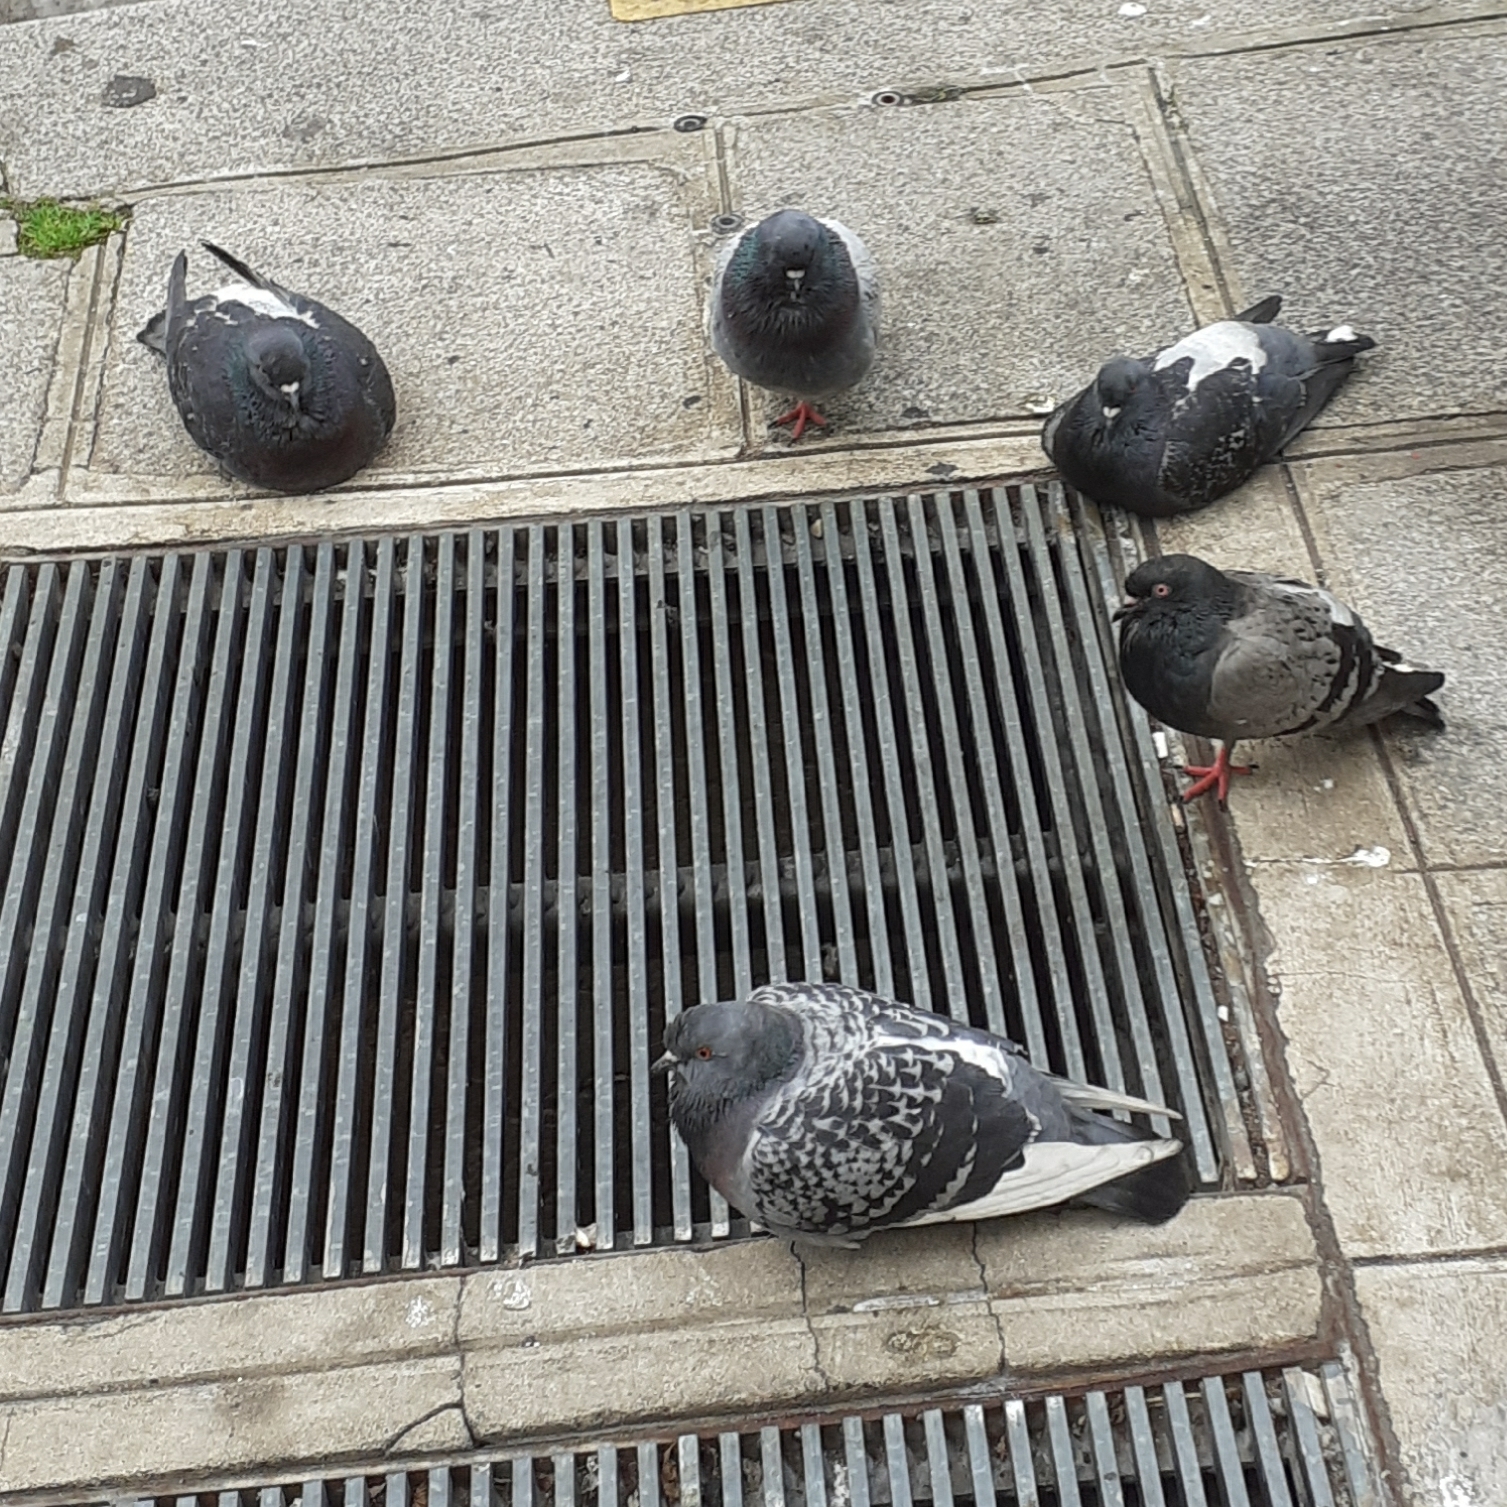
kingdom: Animalia
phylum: Chordata
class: Aves
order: Columbiformes
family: Columbidae
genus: Columba
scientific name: Columba livia
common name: Rock pigeon
